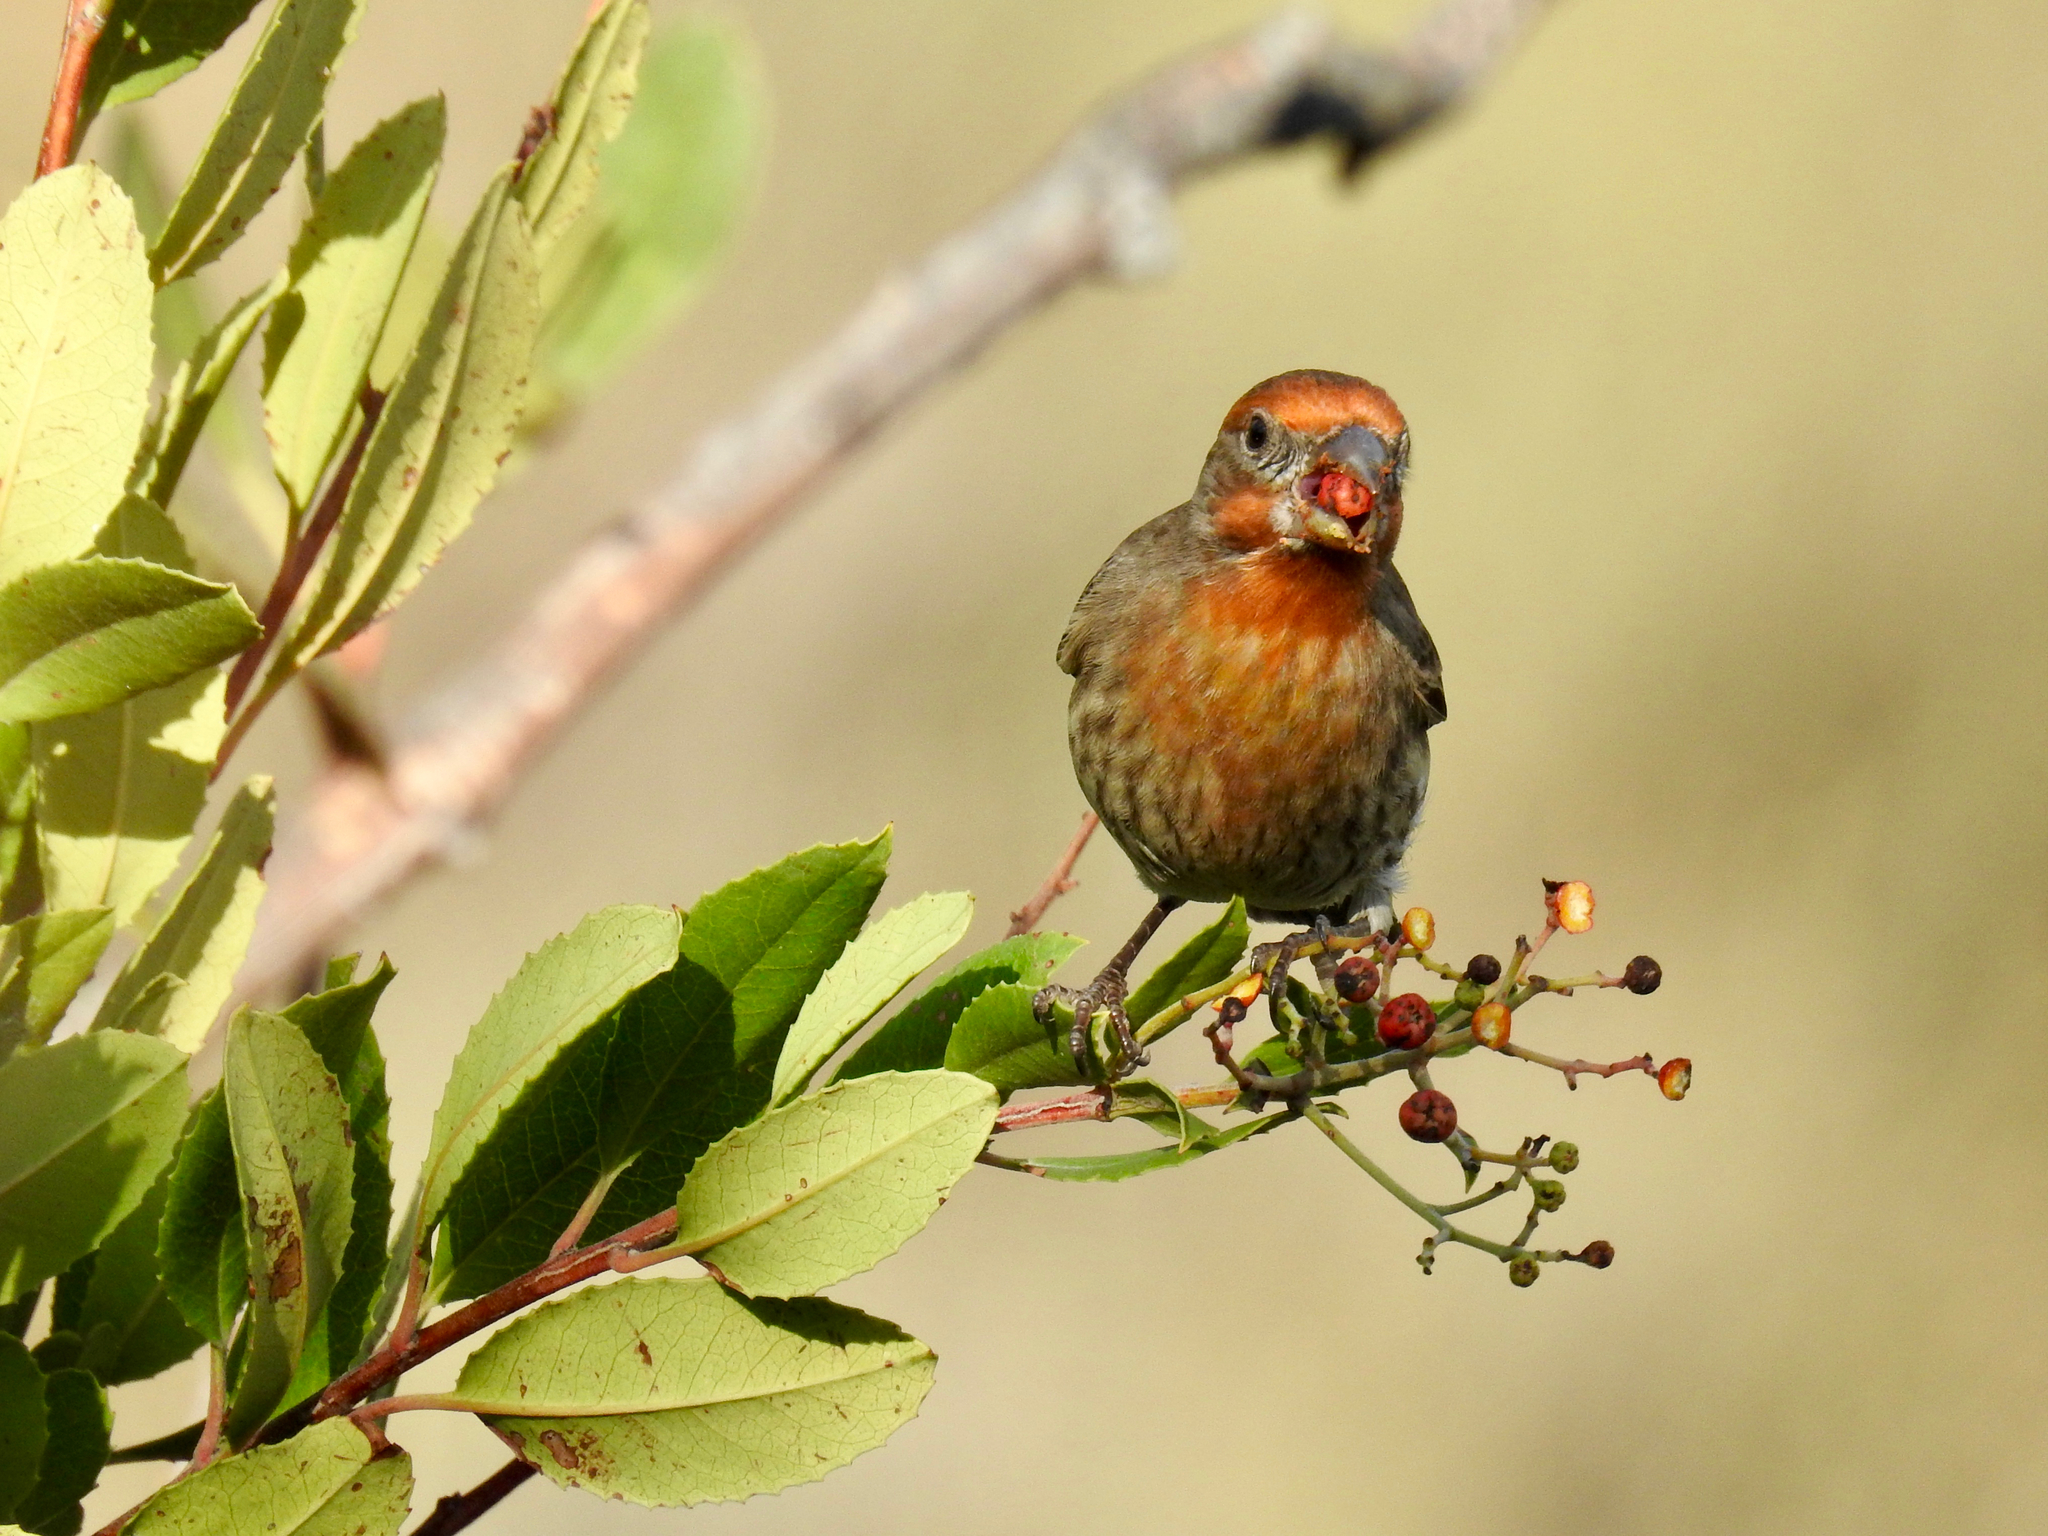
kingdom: Animalia
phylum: Chordata
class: Aves
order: Passeriformes
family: Fringillidae
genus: Haemorhous
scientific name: Haemorhous mexicanus
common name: House finch
